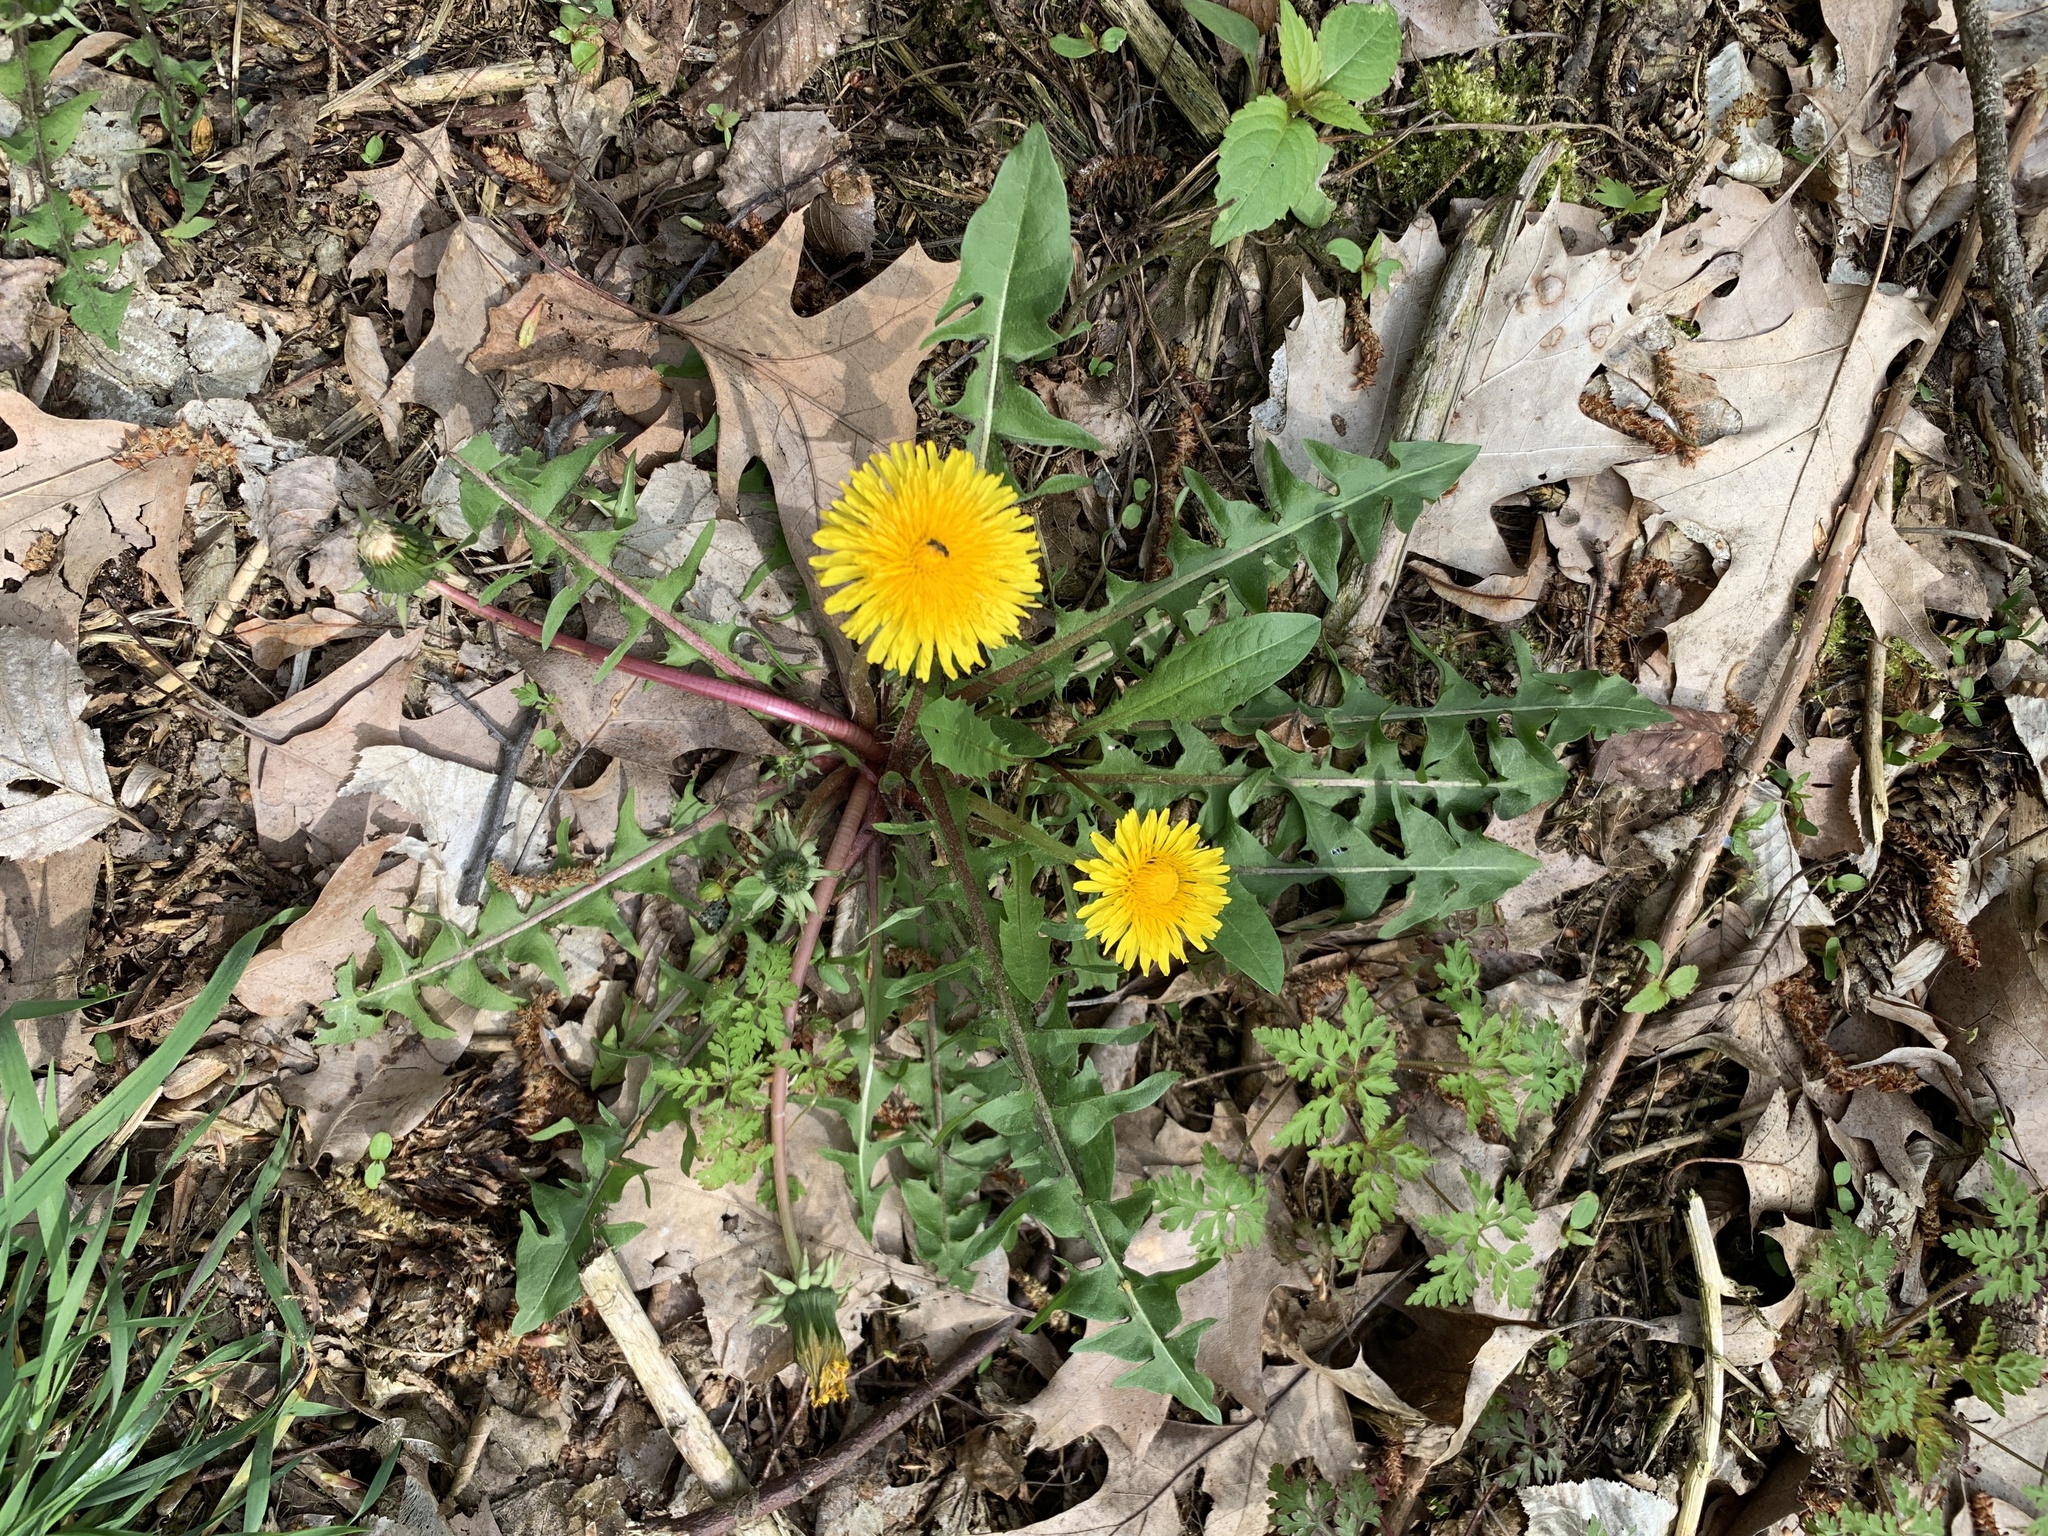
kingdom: Plantae
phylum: Tracheophyta
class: Magnoliopsida
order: Asterales
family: Asteraceae
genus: Taraxacum
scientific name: Taraxacum officinale
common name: Common dandelion
